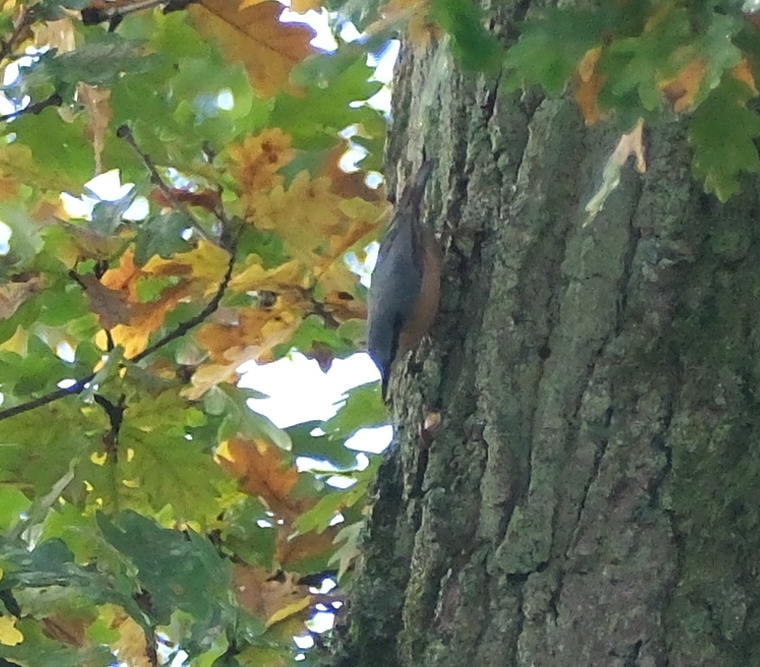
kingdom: Animalia
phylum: Chordata
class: Aves
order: Passeriformes
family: Sittidae
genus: Sitta
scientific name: Sitta europaea
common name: Eurasian nuthatch
